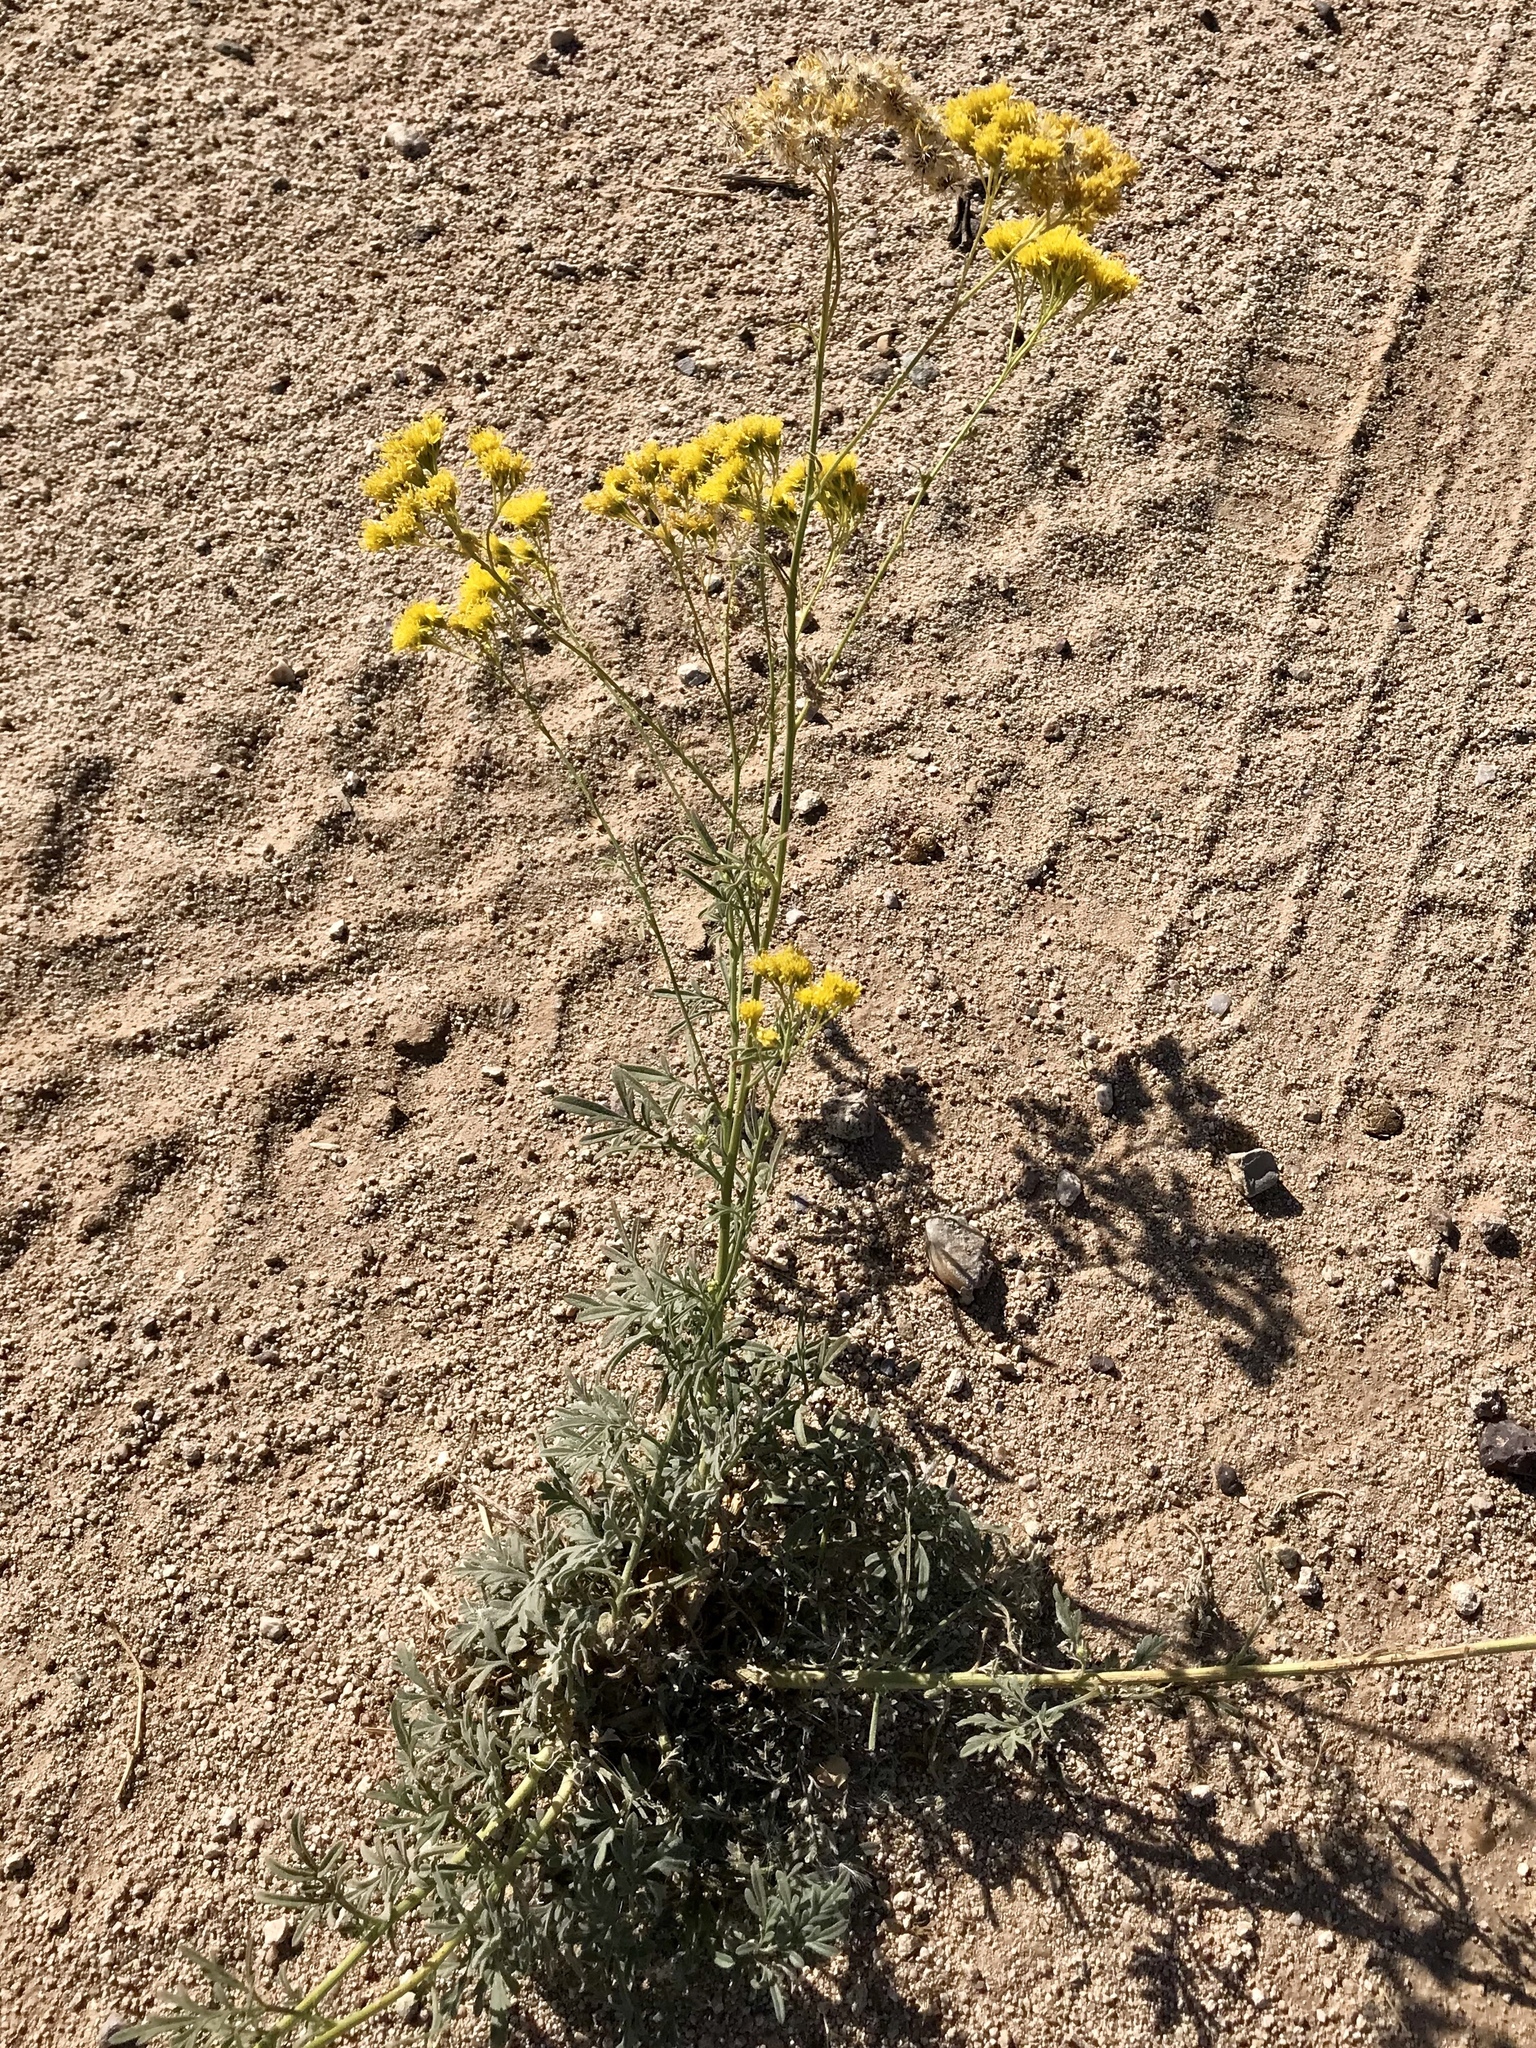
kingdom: Plantae
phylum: Tracheophyta
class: Magnoliopsida
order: Asterales
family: Asteraceae
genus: Hymenothrix
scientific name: Hymenothrix wislizeni
